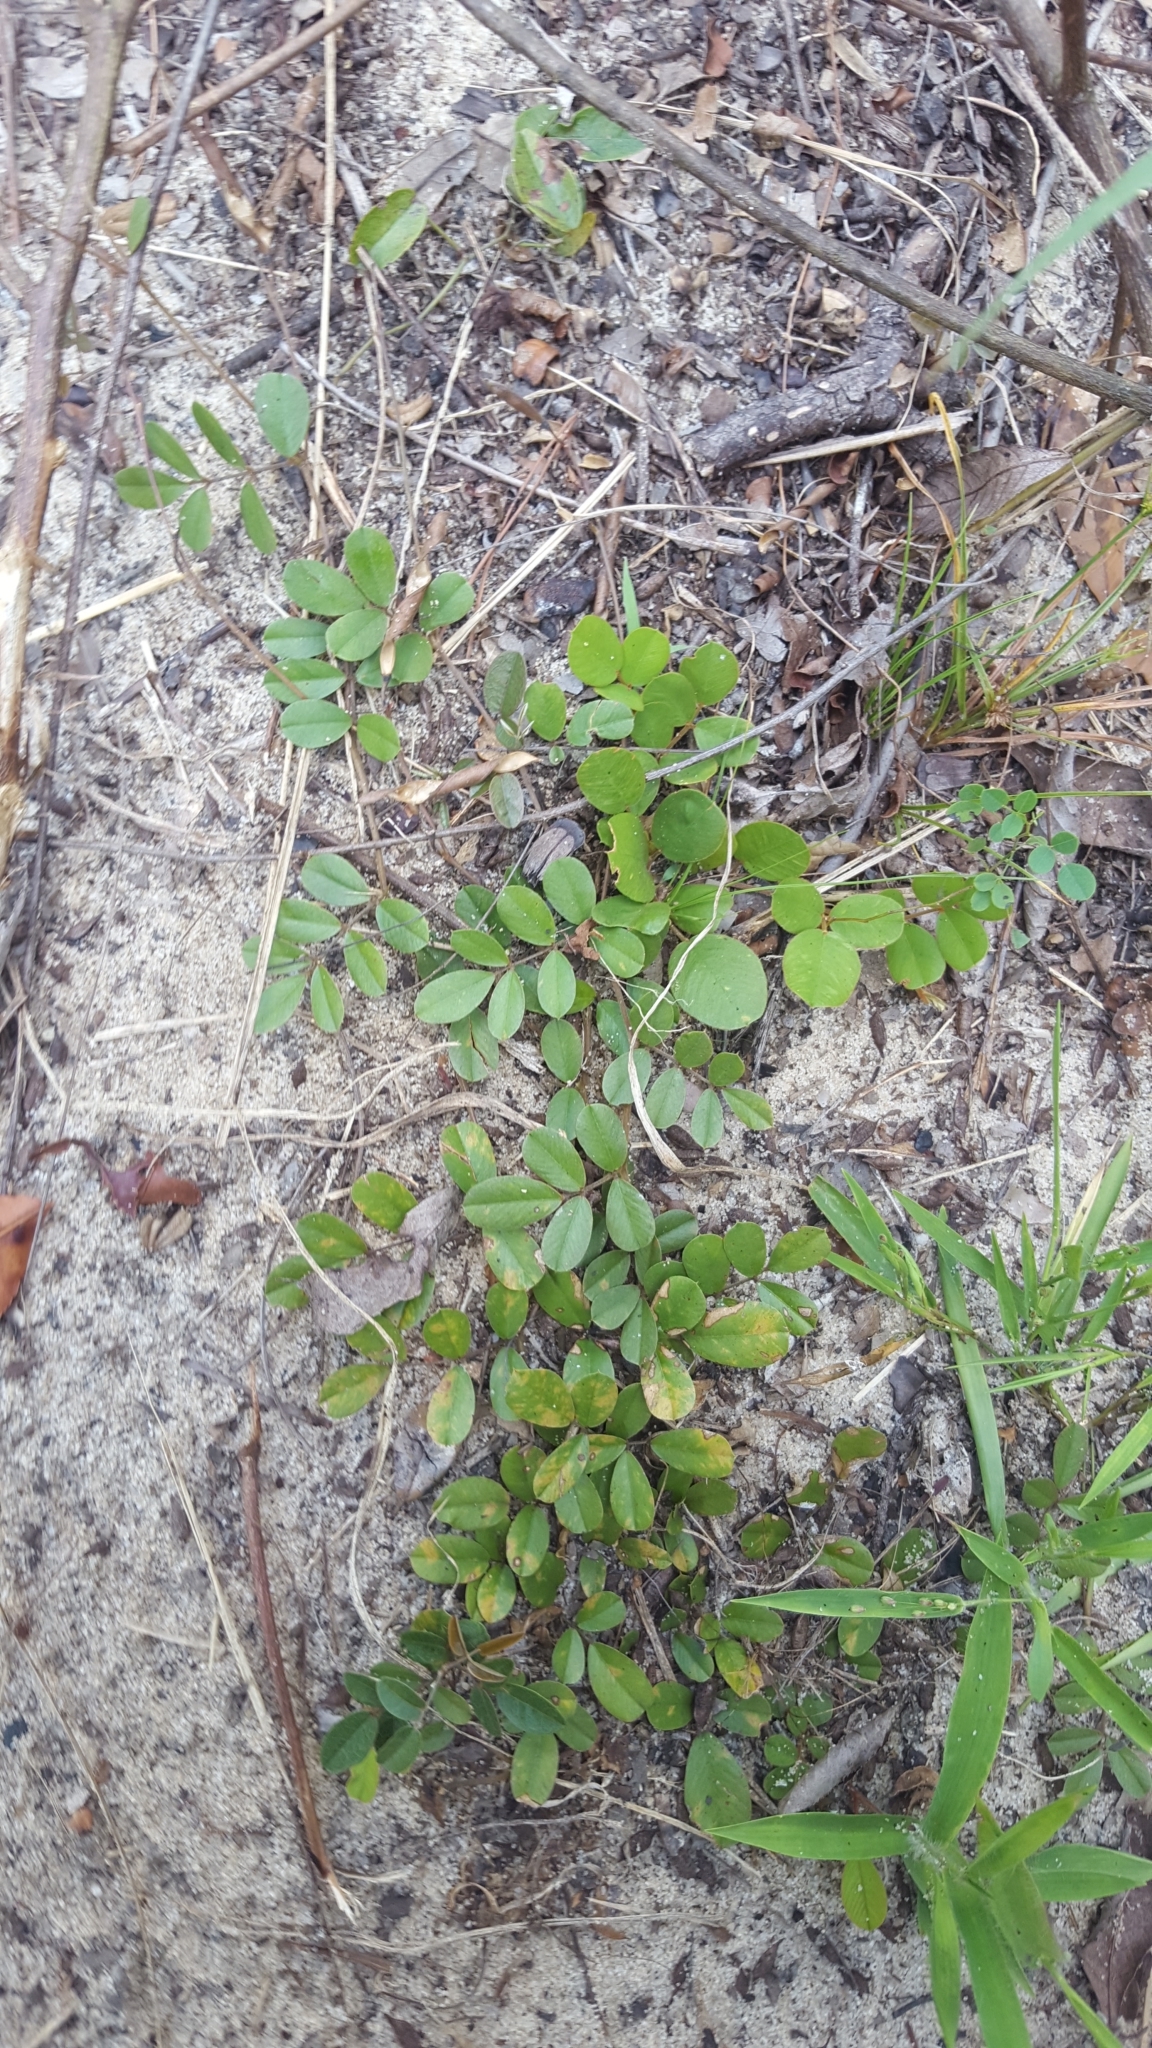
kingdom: Plantae
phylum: Tracheophyta
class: Magnoliopsida
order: Fabales
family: Fabaceae
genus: Tephrosia
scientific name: Tephrosia mysteriosa
